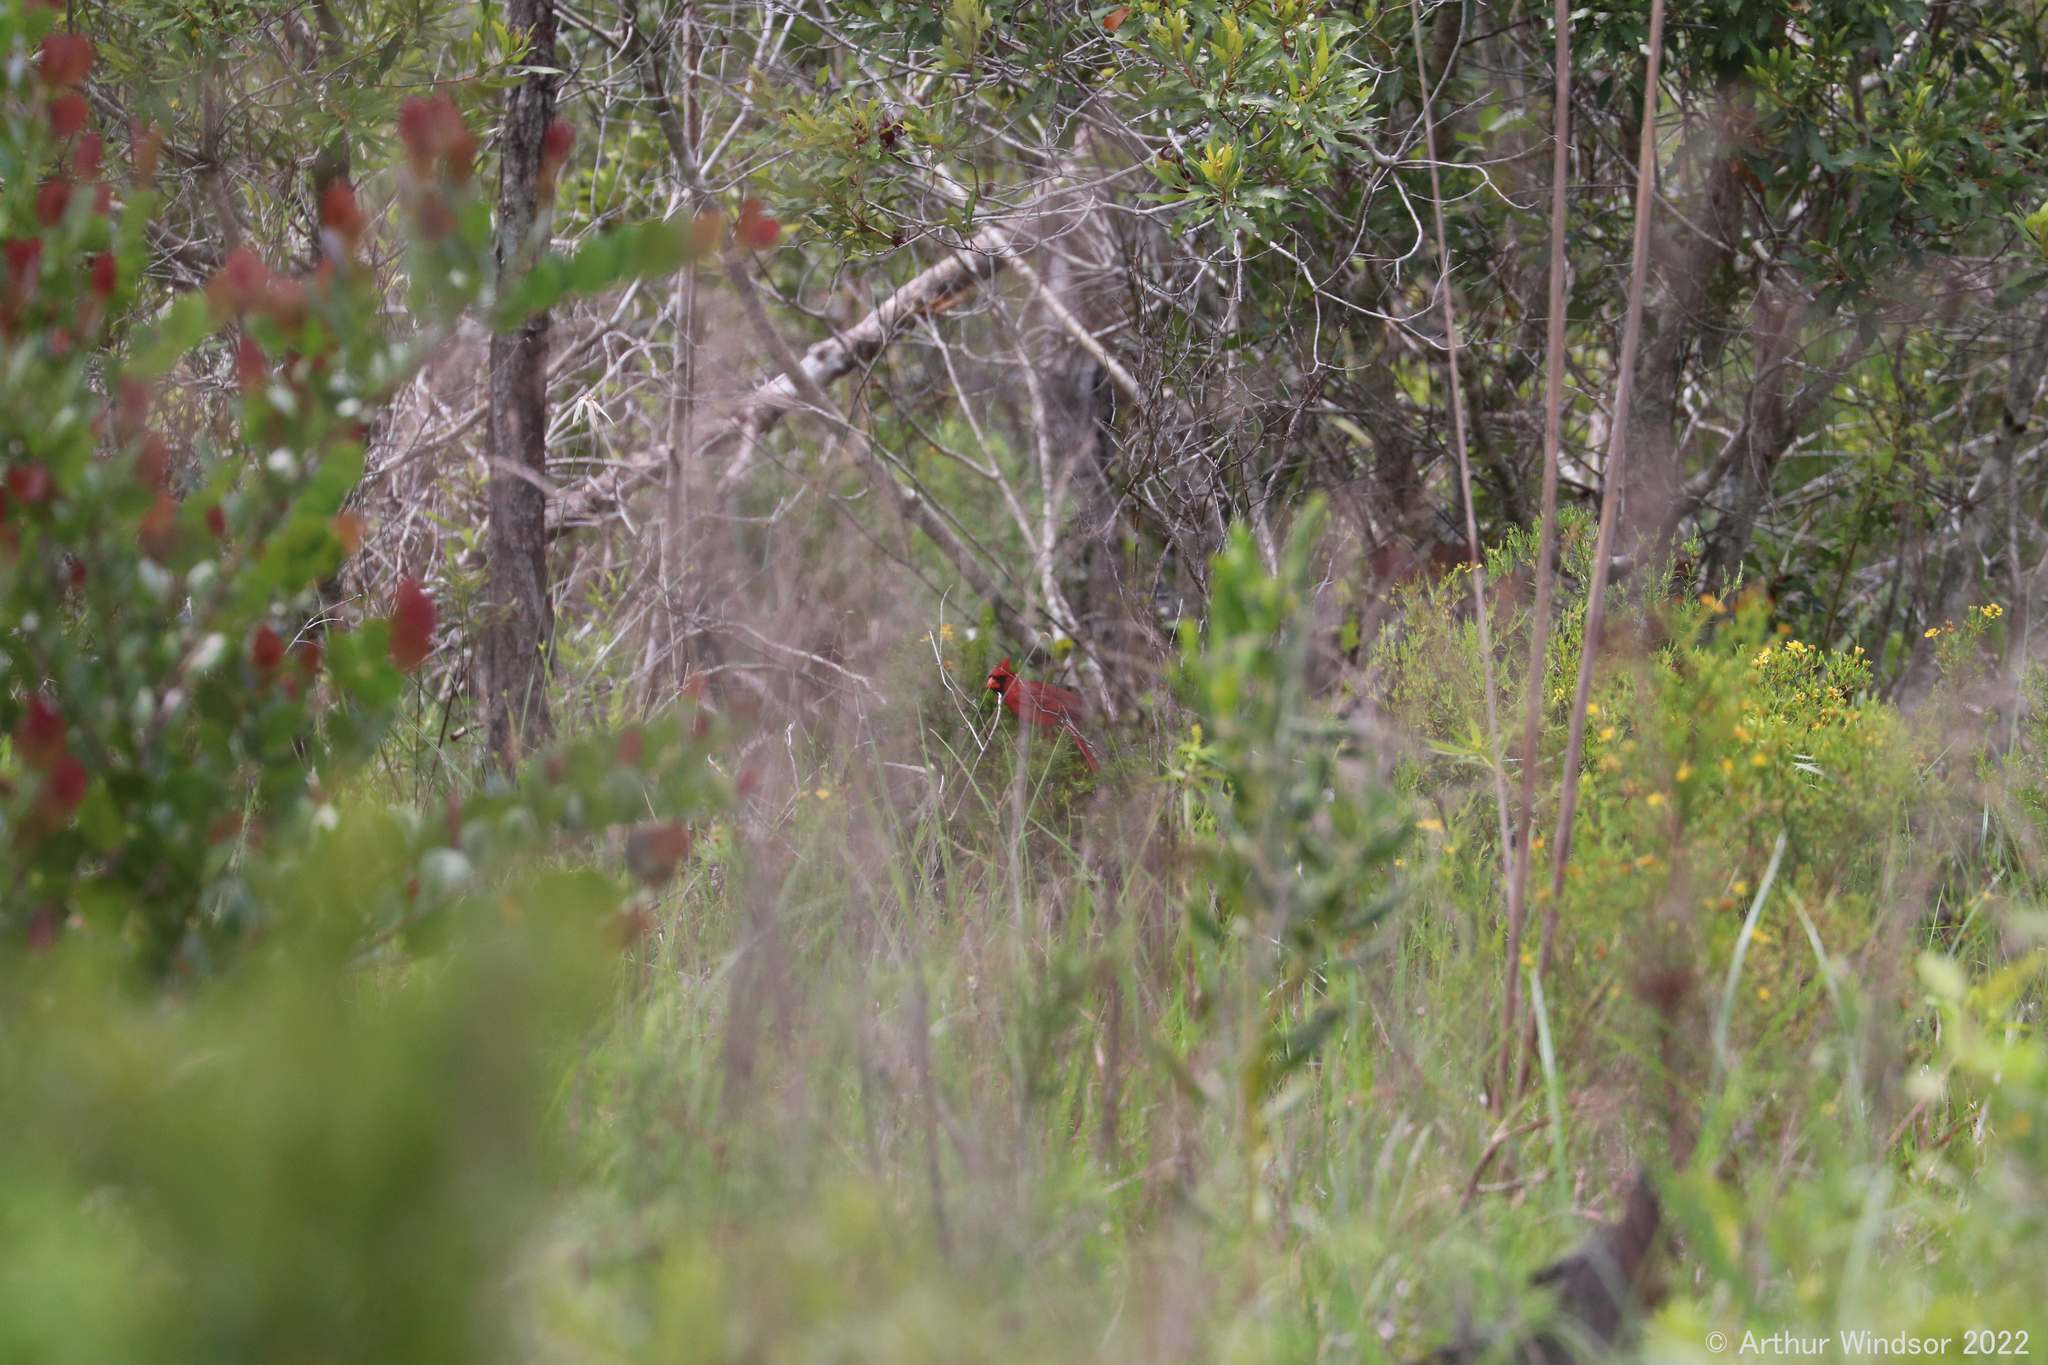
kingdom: Animalia
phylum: Chordata
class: Aves
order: Passeriformes
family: Cardinalidae
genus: Cardinalis
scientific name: Cardinalis cardinalis
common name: Northern cardinal
